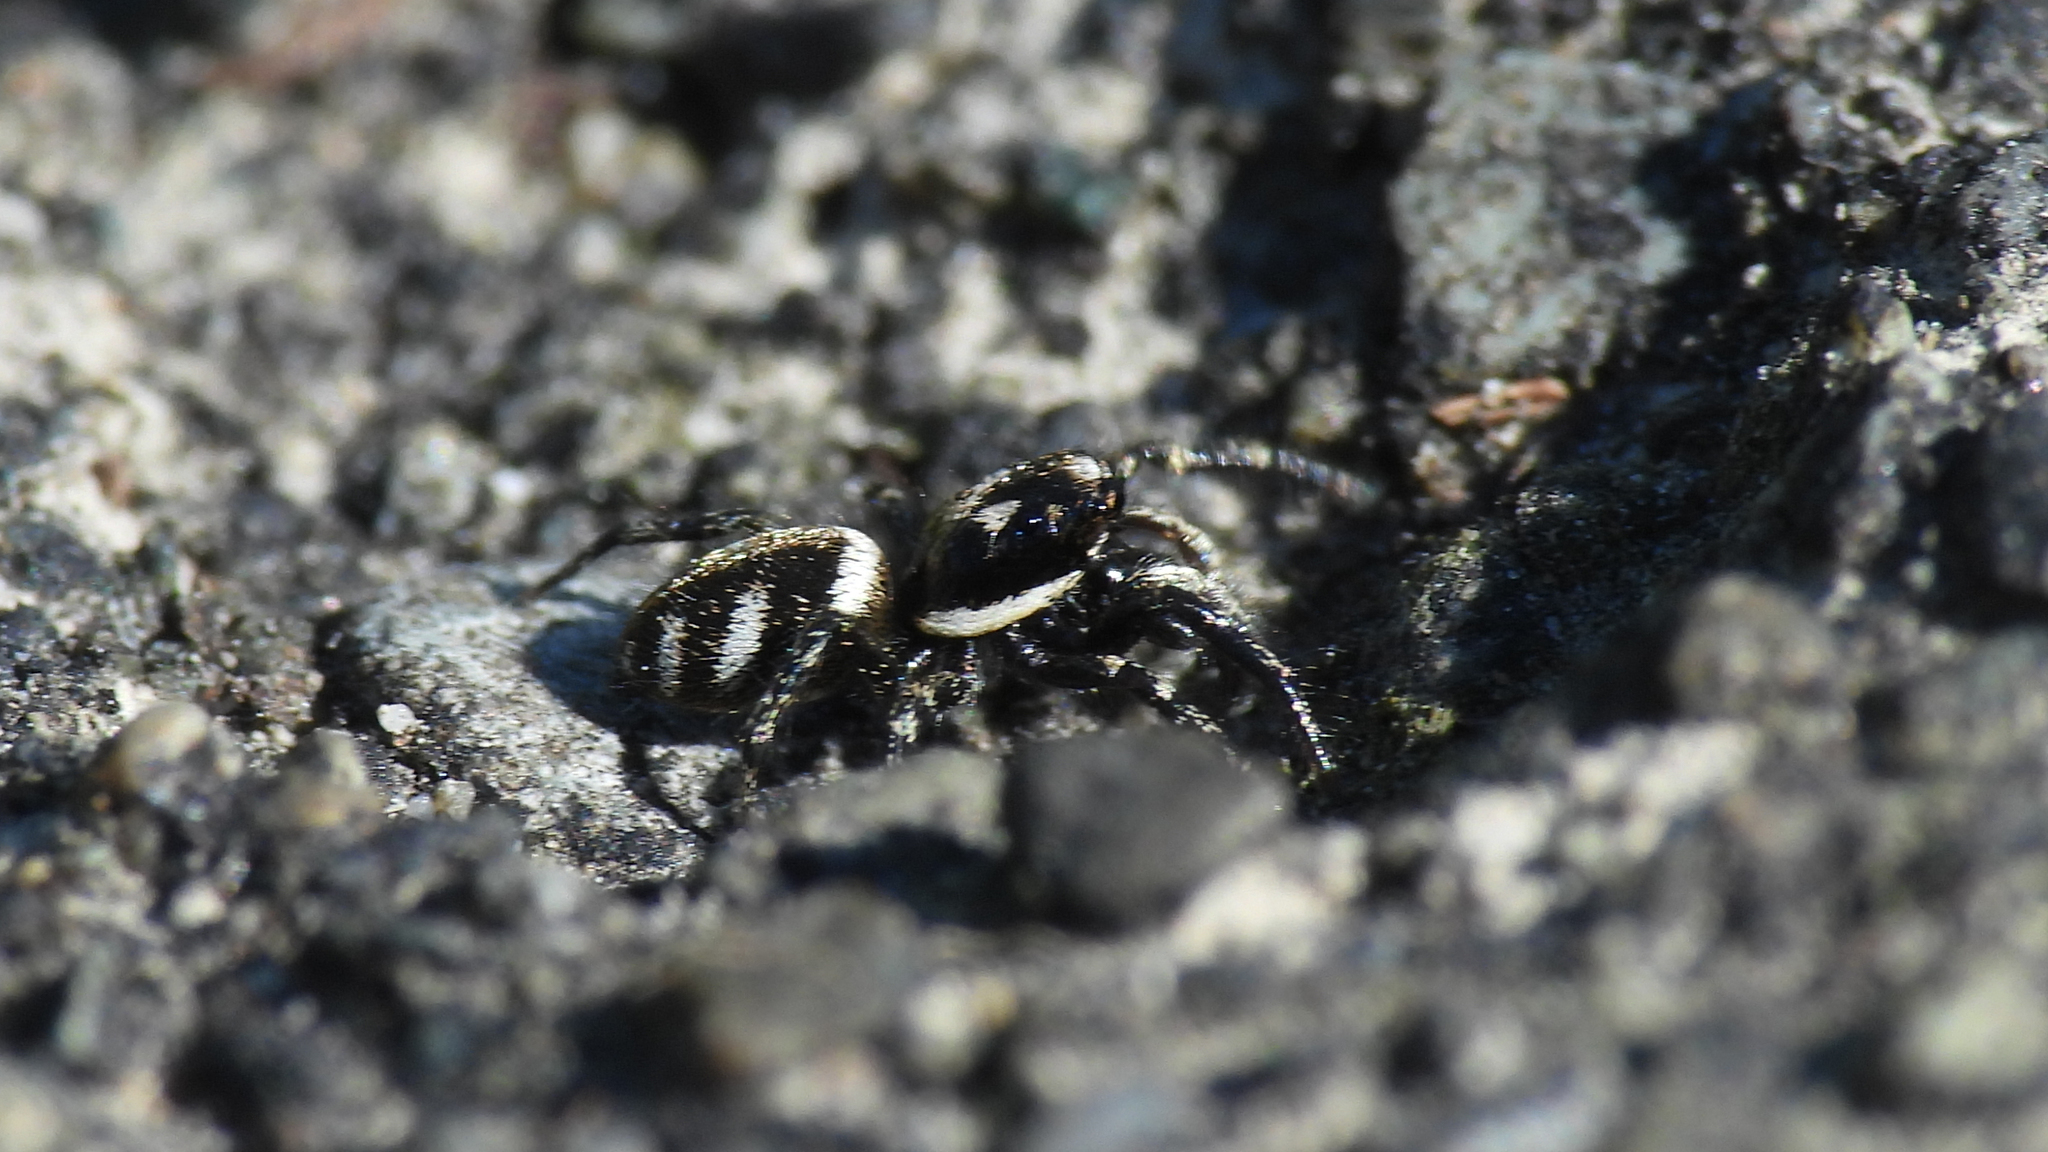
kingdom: Animalia
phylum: Arthropoda
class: Arachnida
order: Araneae
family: Salticidae
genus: Salticus
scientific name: Salticus scenicus
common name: Zebra jumper
